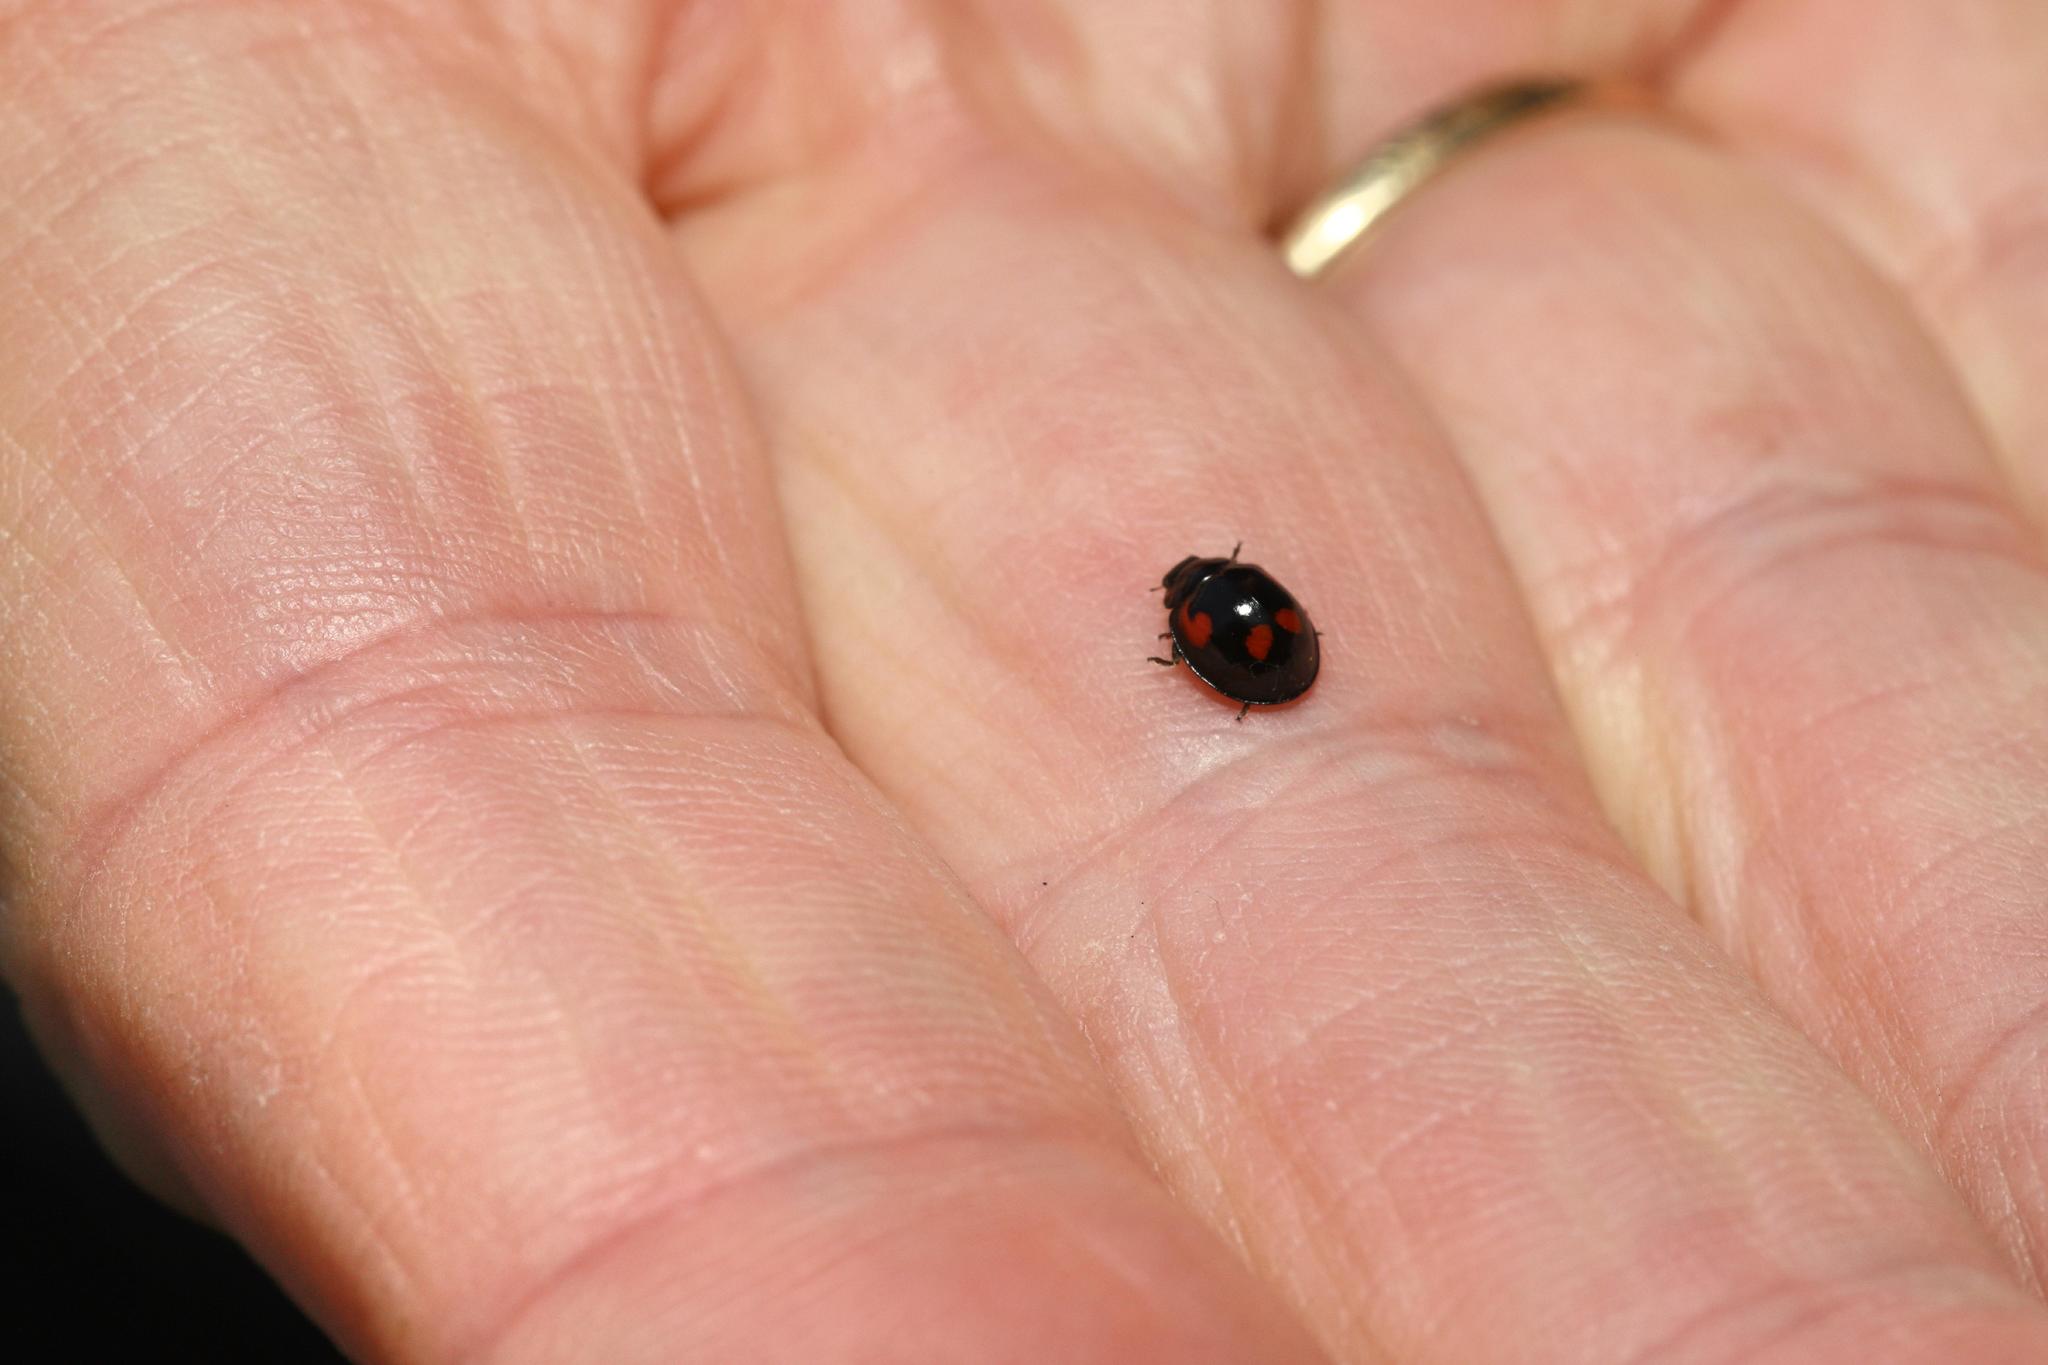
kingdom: Animalia
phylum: Arthropoda
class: Insecta
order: Coleoptera
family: Coccinellidae
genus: Brumus
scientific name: Brumus quadripustulatus
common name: Ladybird beetle
